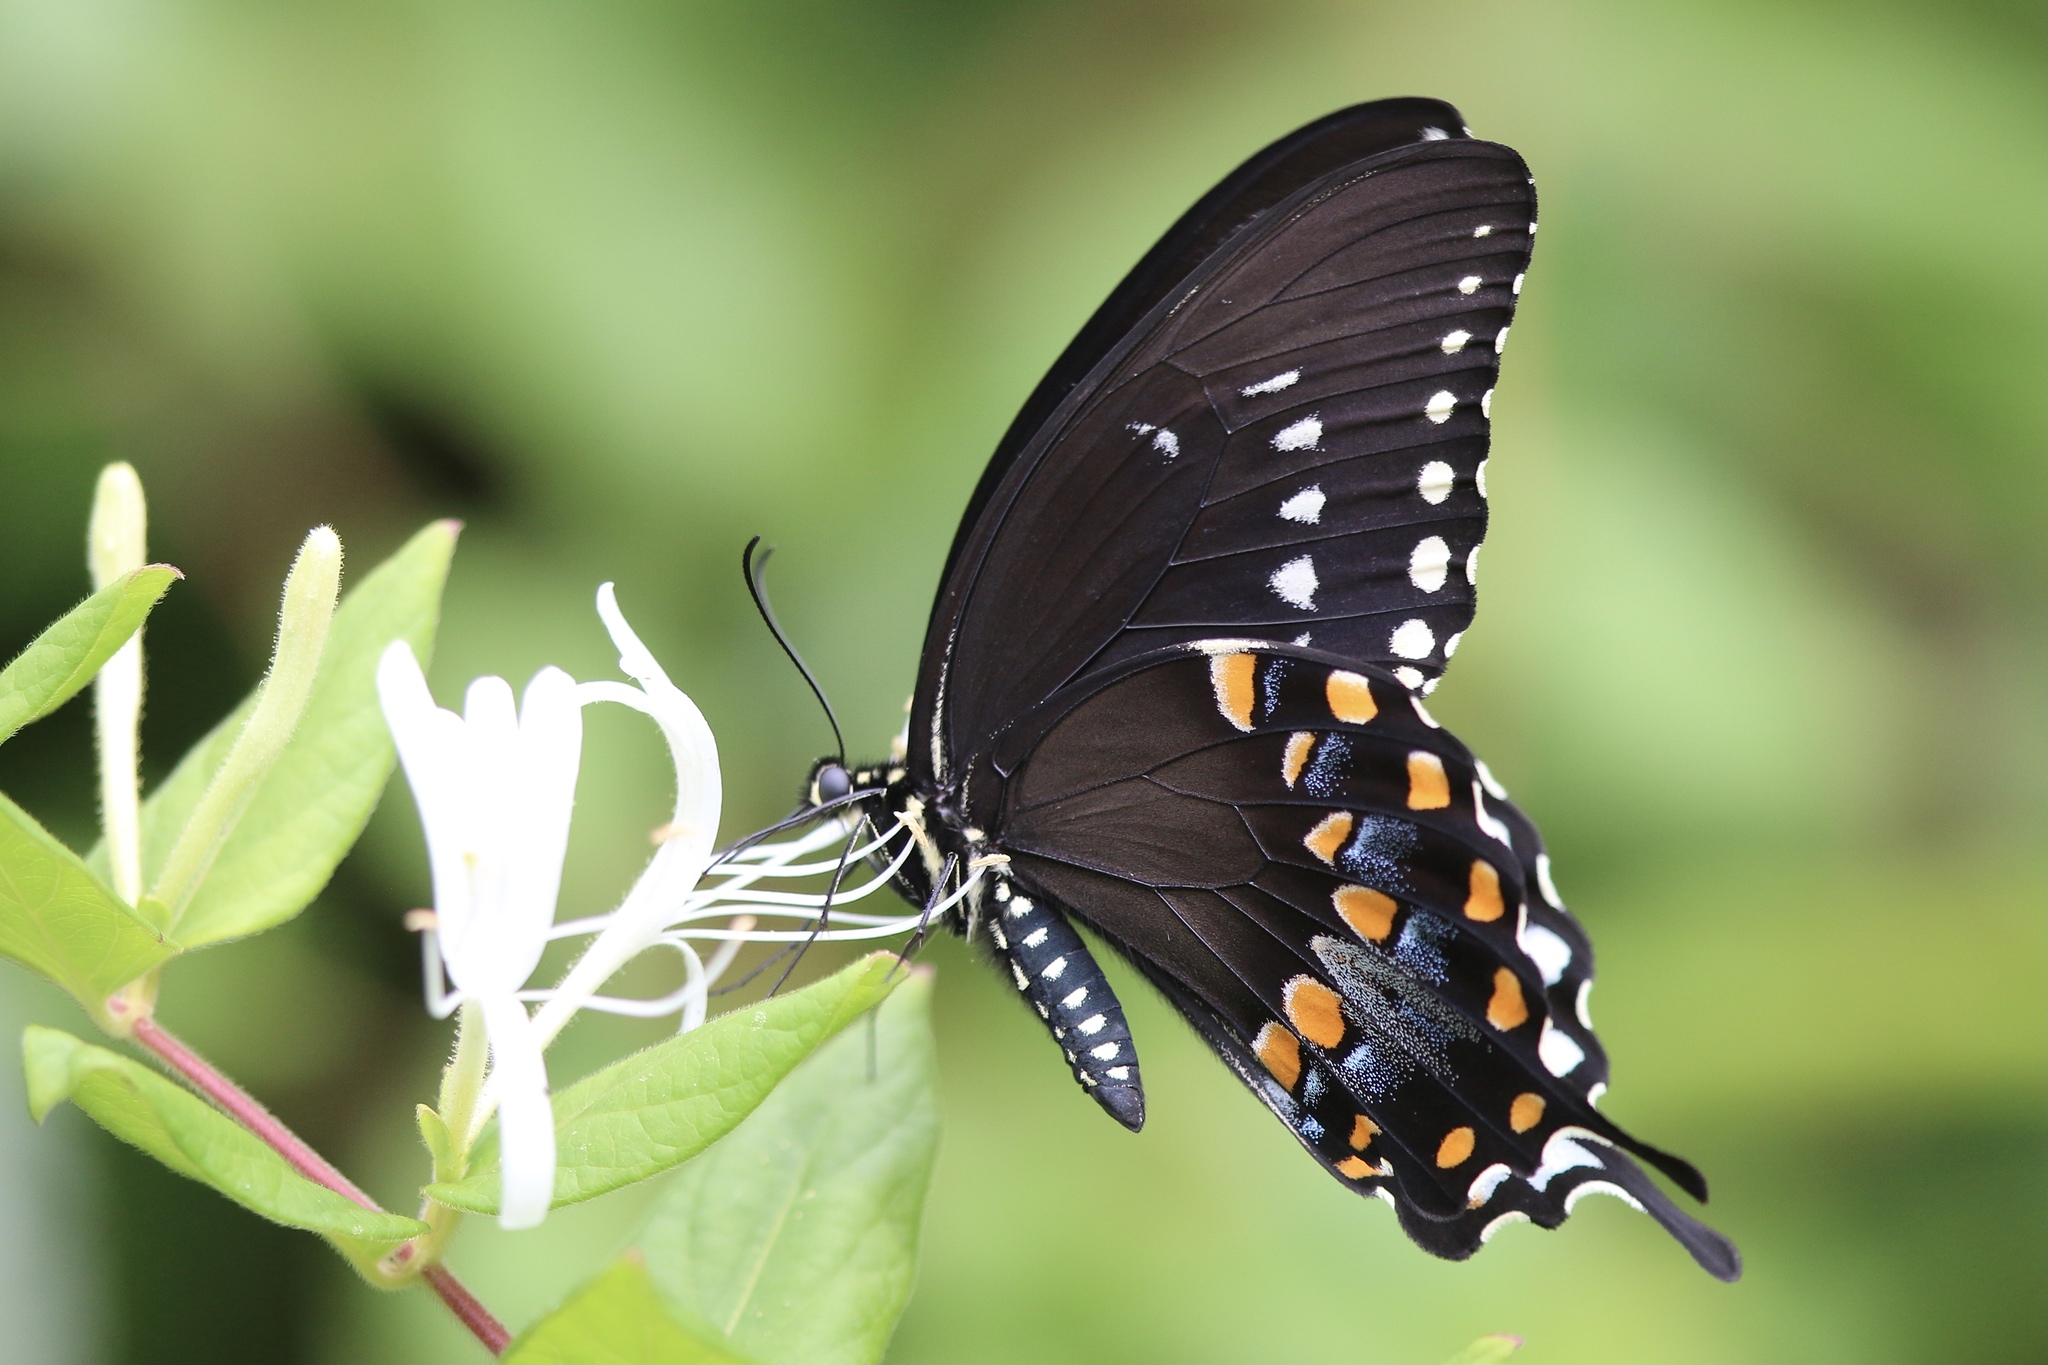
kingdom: Animalia
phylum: Arthropoda
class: Insecta
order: Lepidoptera
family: Papilionidae
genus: Papilio
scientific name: Papilio troilus
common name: Spicebush swallowtail
